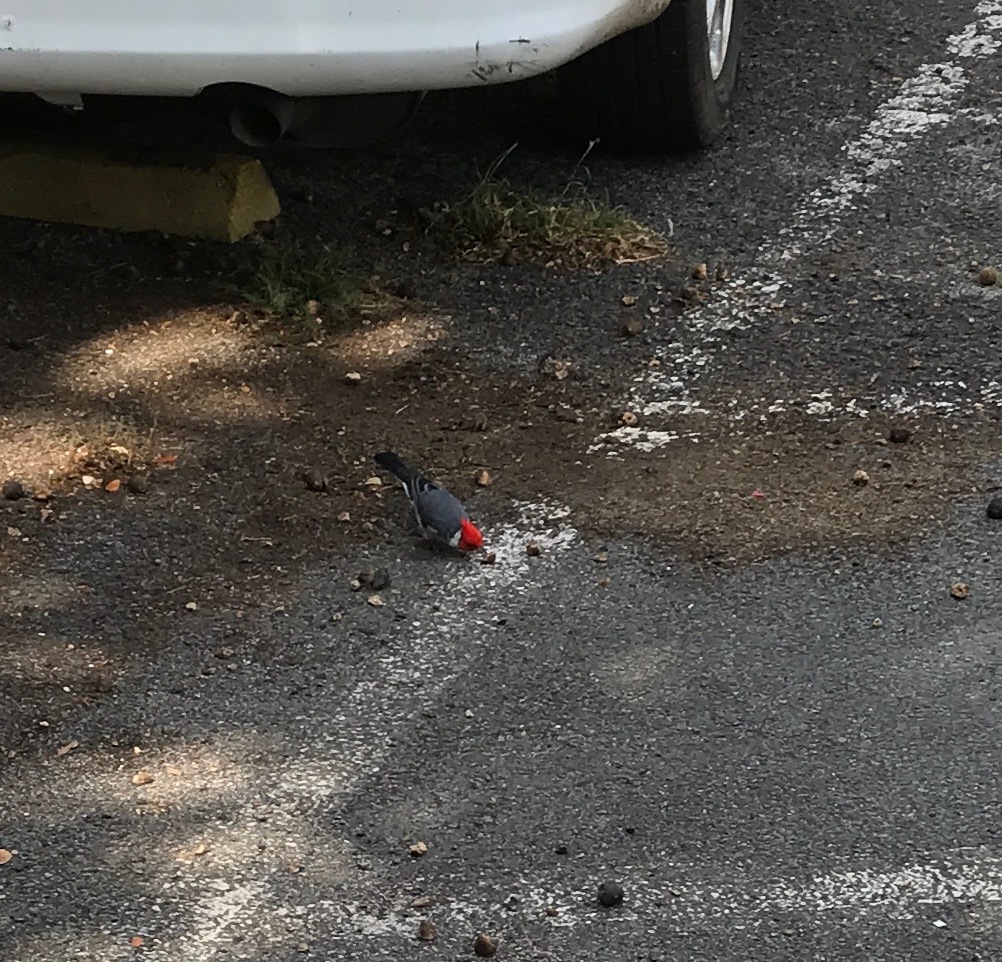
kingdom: Animalia
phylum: Chordata
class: Aves
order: Passeriformes
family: Thraupidae
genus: Paroaria
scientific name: Paroaria coronata
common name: Red-crested cardinal
